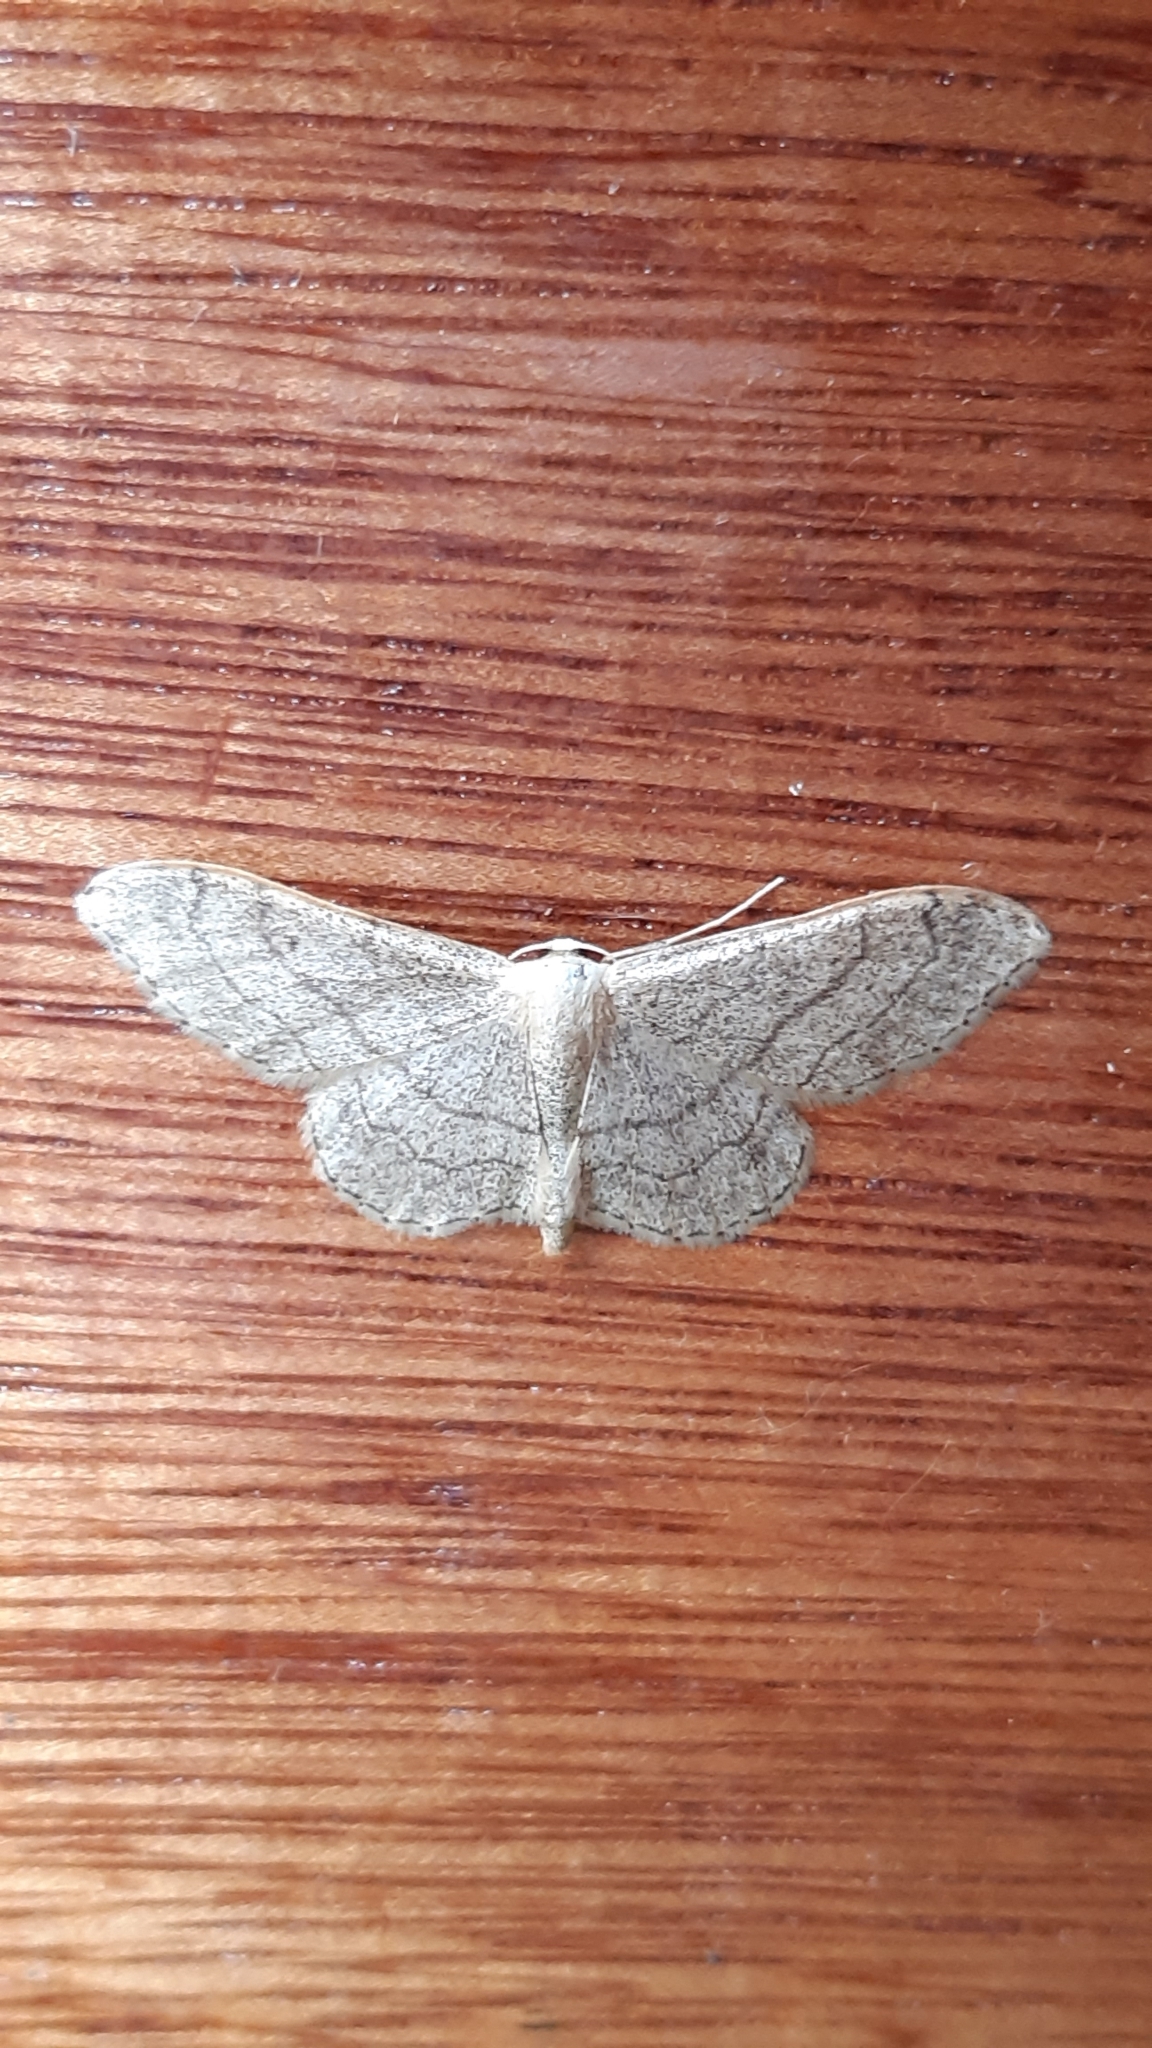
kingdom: Animalia
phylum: Arthropoda
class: Insecta
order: Lepidoptera
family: Geometridae
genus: Idaea
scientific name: Idaea aversata
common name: Riband wave
